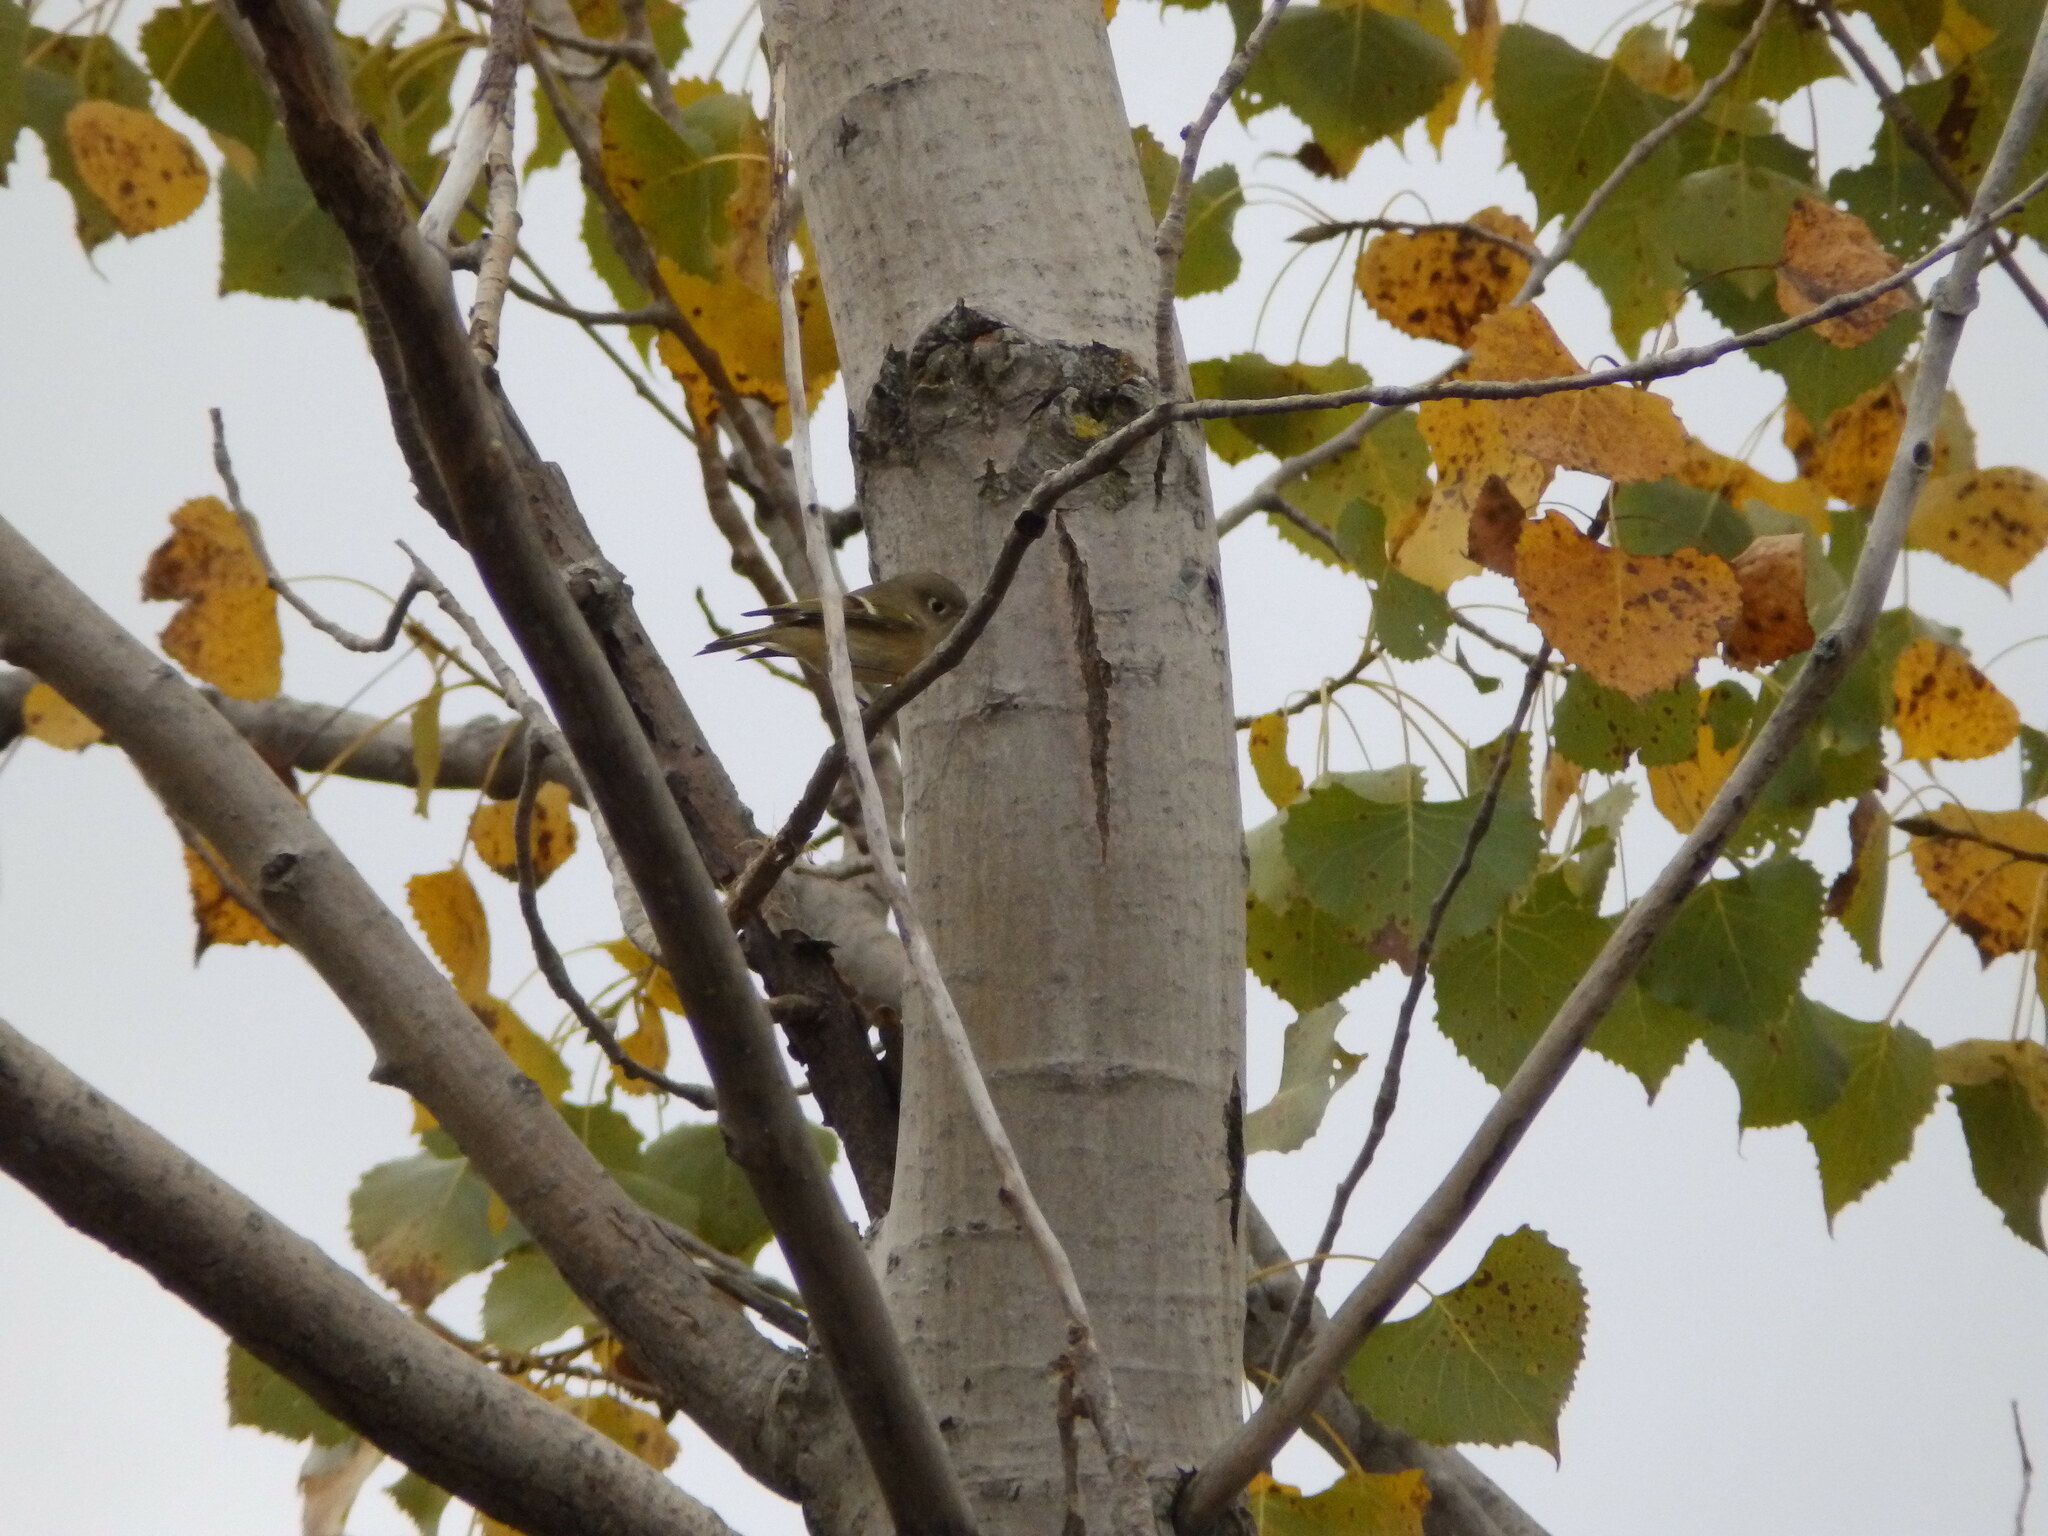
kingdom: Animalia
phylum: Chordata
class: Aves
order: Passeriformes
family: Regulidae
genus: Regulus
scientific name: Regulus calendula
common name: Ruby-crowned kinglet
